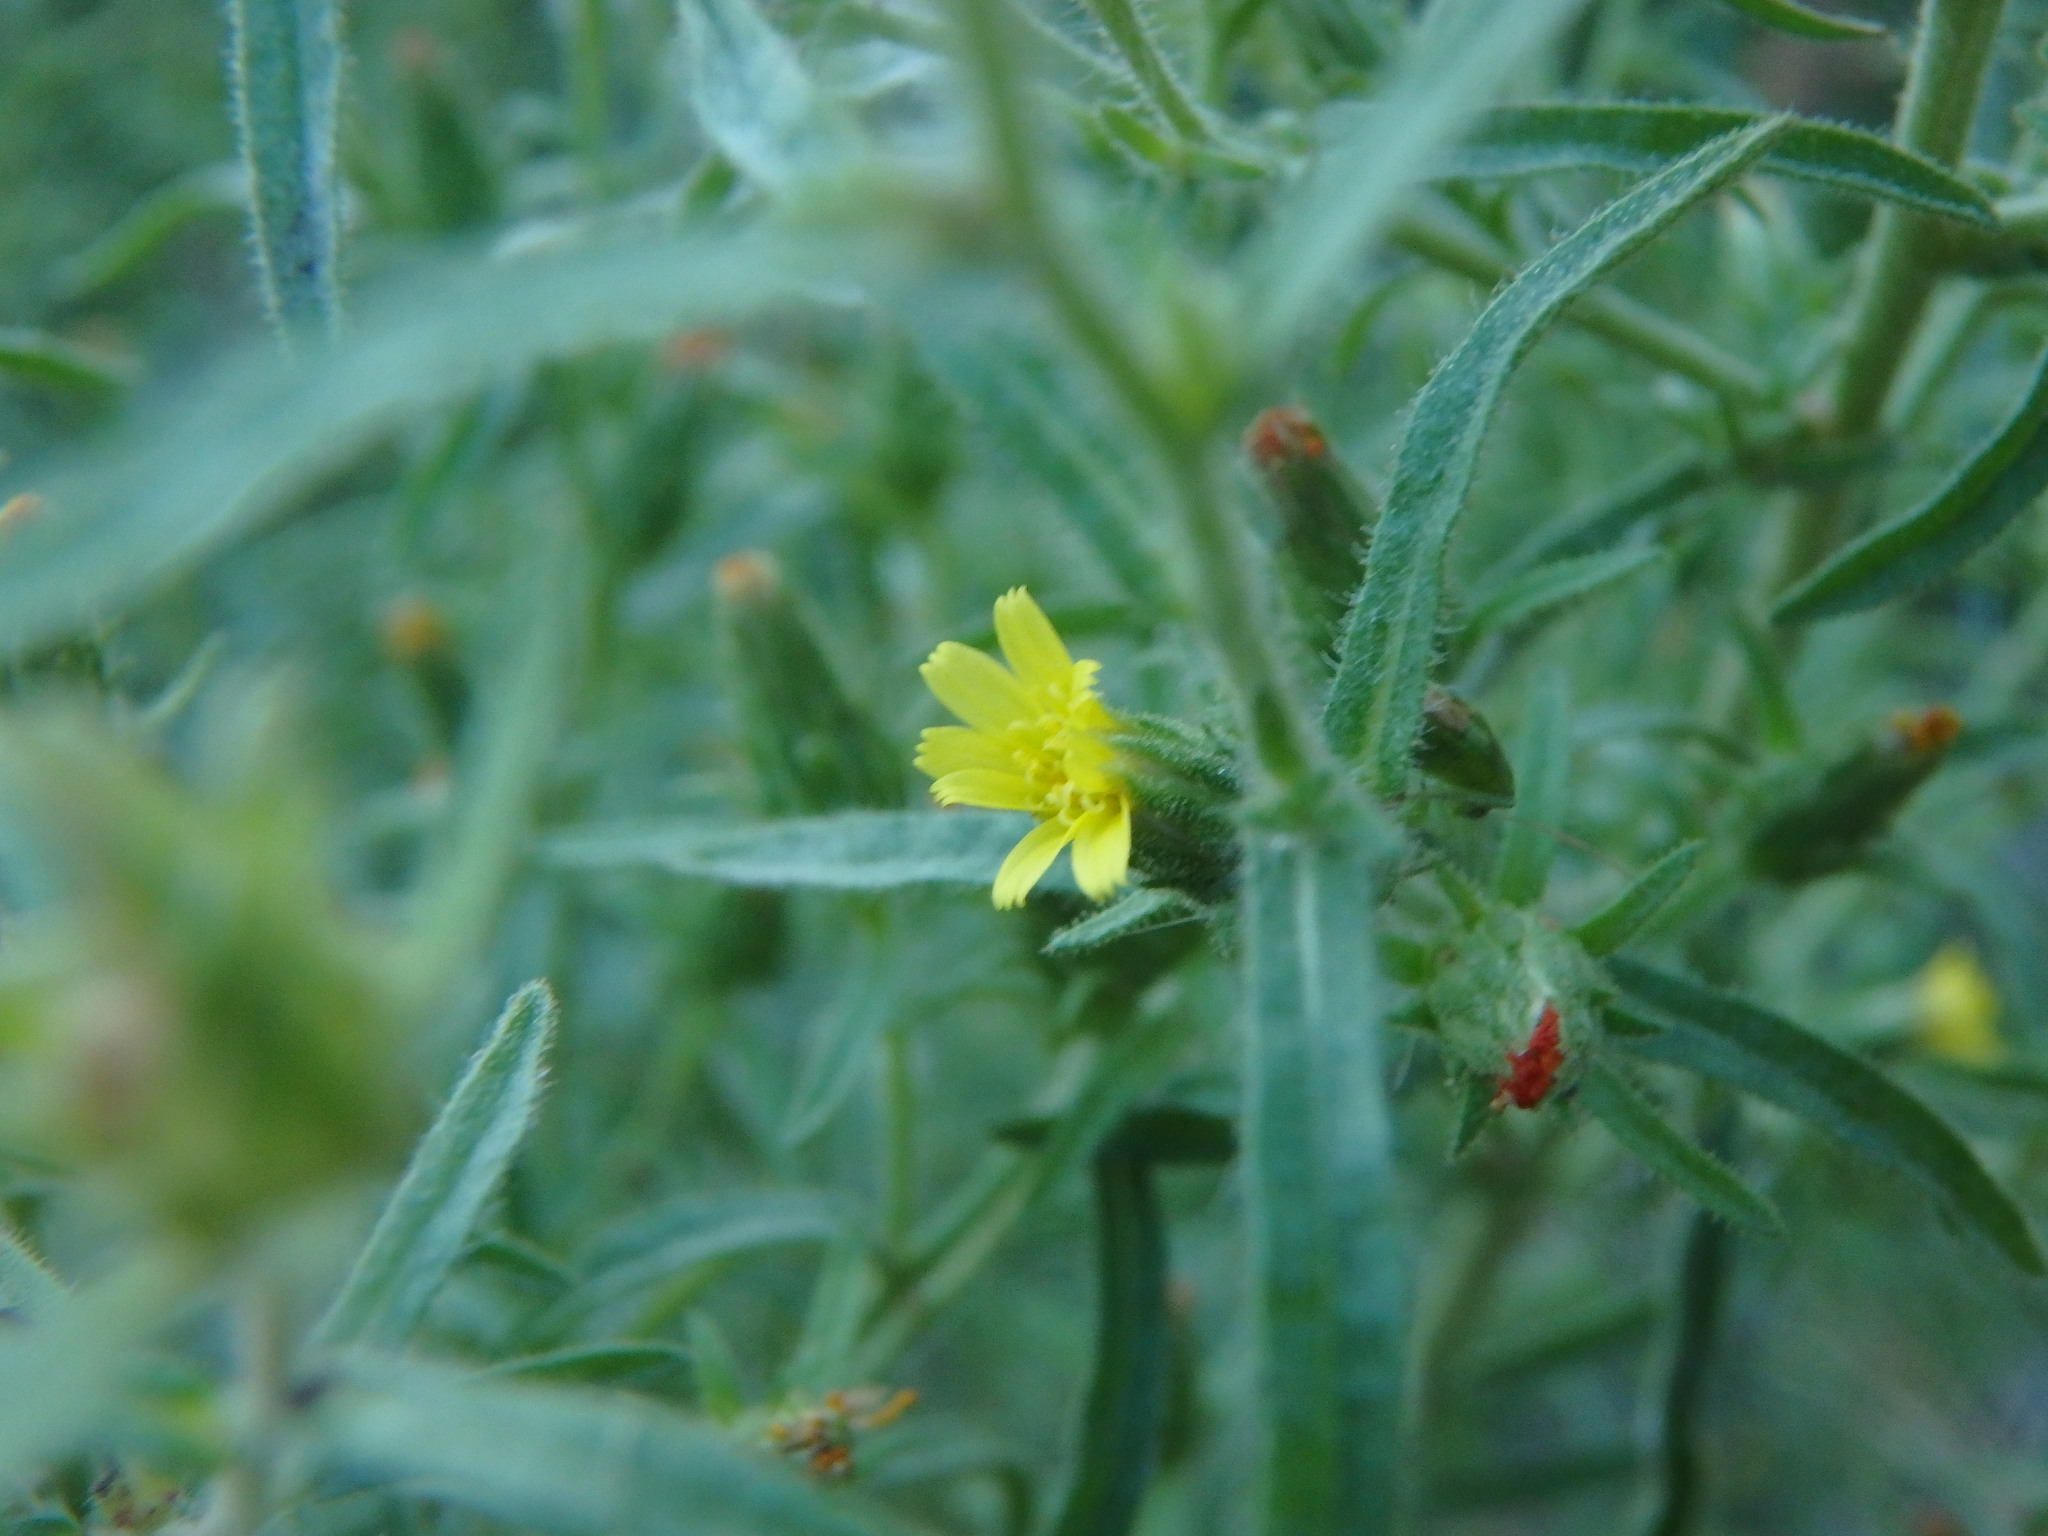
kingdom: Plantae
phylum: Tracheophyta
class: Magnoliopsida
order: Asterales
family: Asteraceae
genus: Dittrichia
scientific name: Dittrichia graveolens
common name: Stinking fleabane
